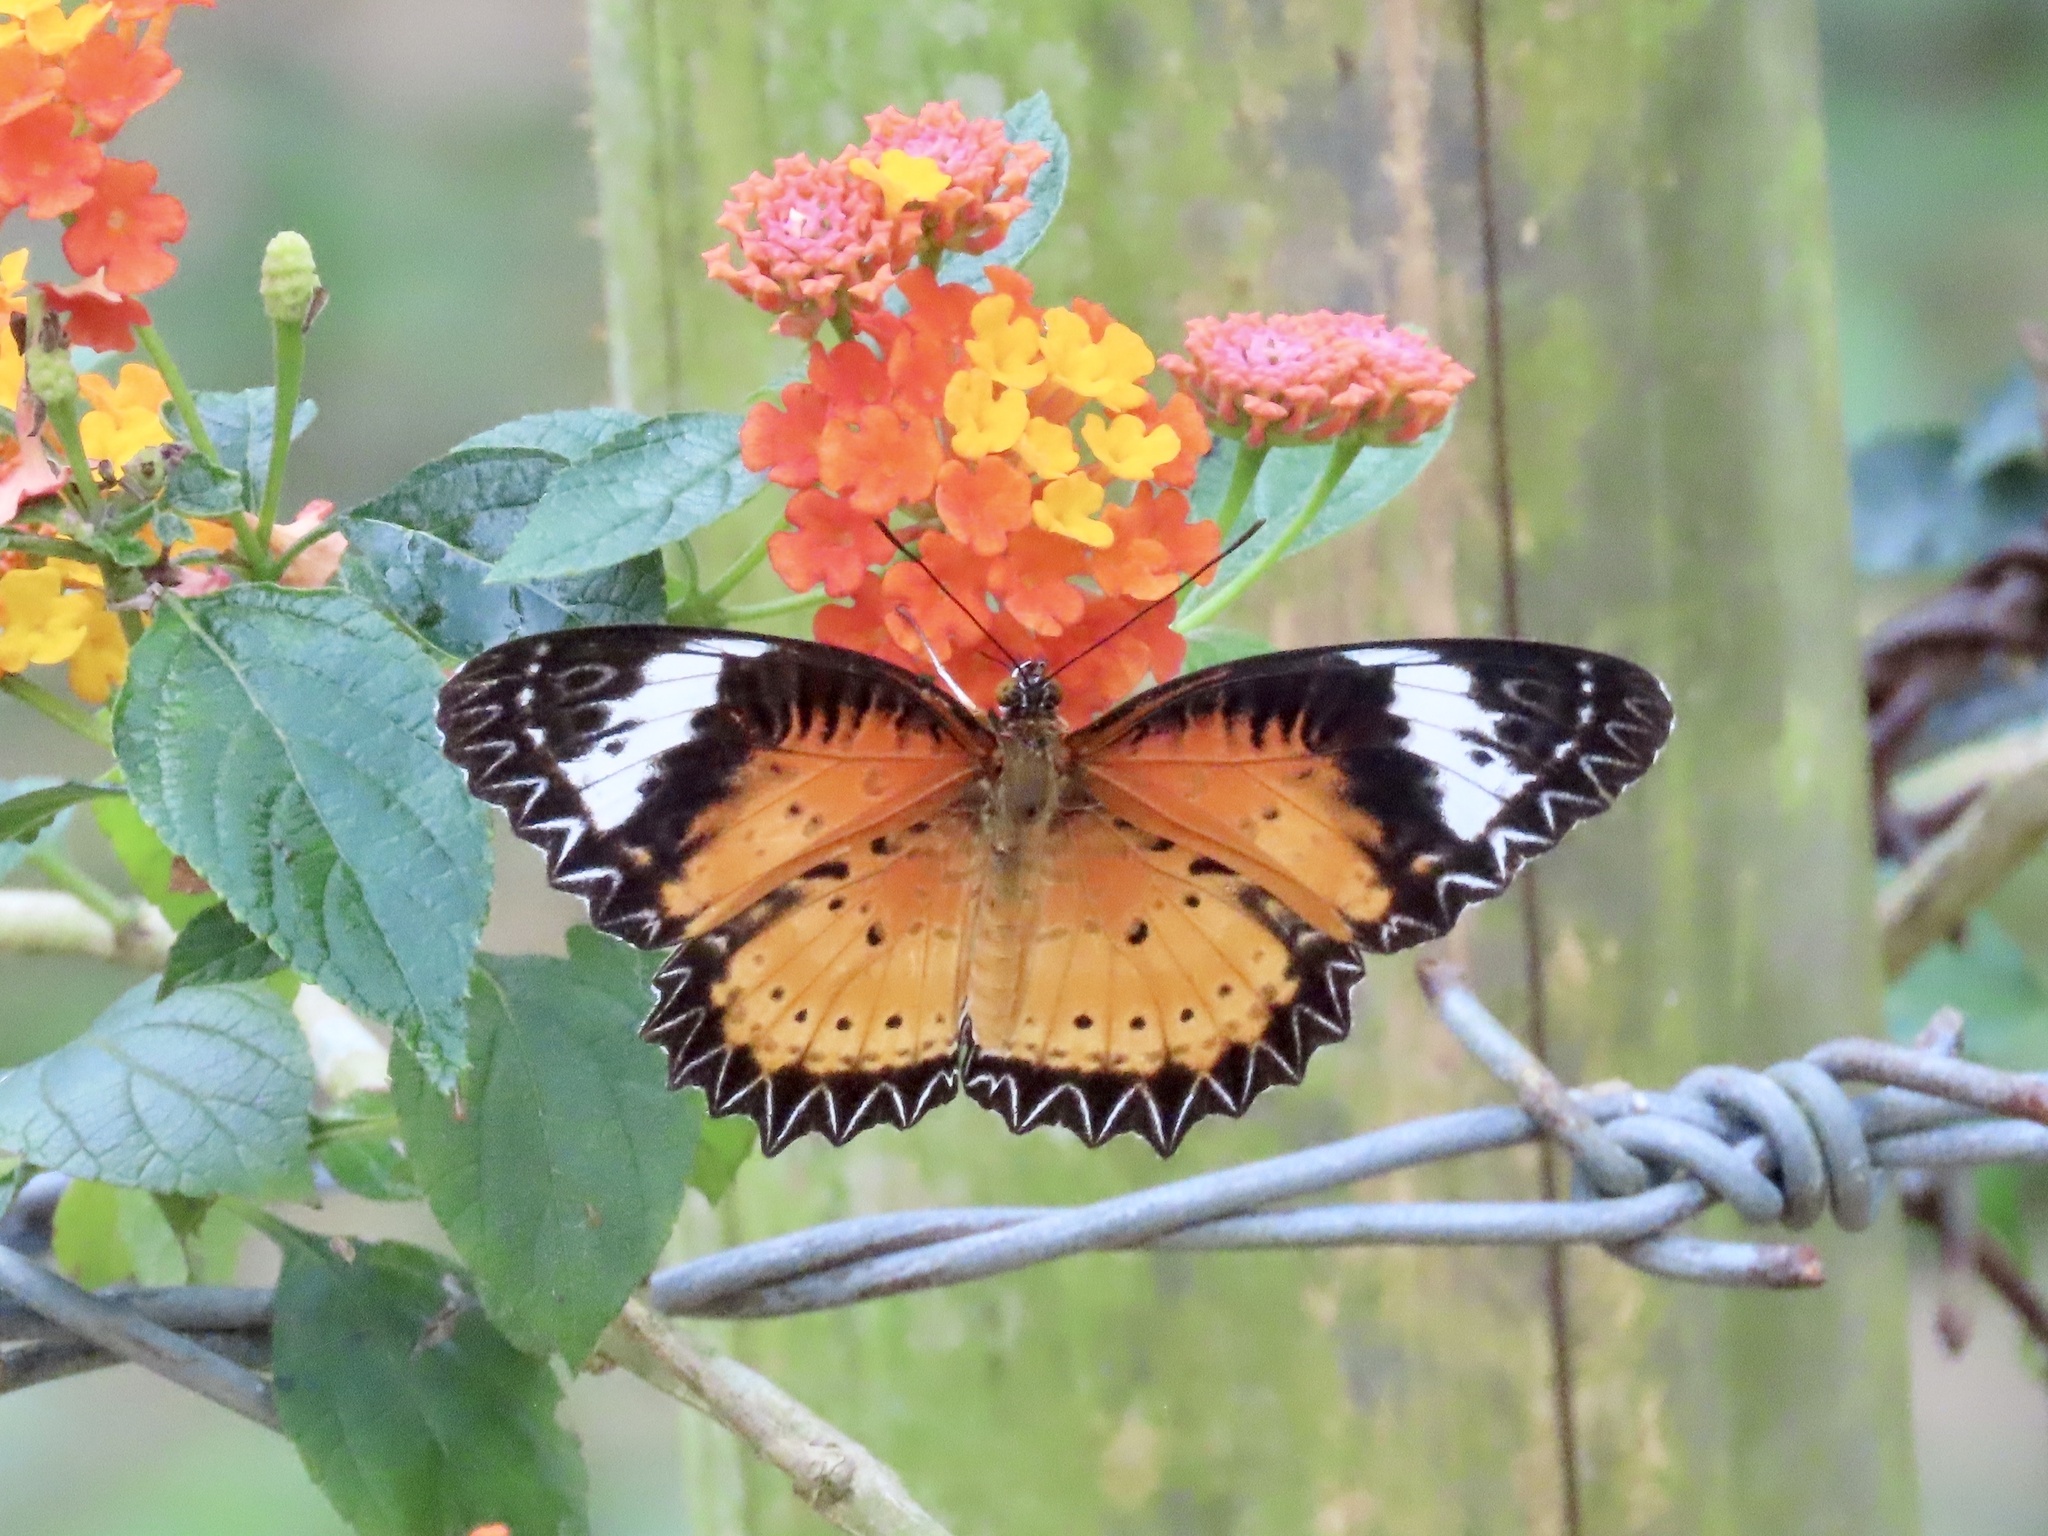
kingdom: Animalia
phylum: Arthropoda
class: Insecta
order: Lepidoptera
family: Nymphalidae
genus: Cethosia
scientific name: Cethosia cyane
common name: Leopard lacewing butterfly
